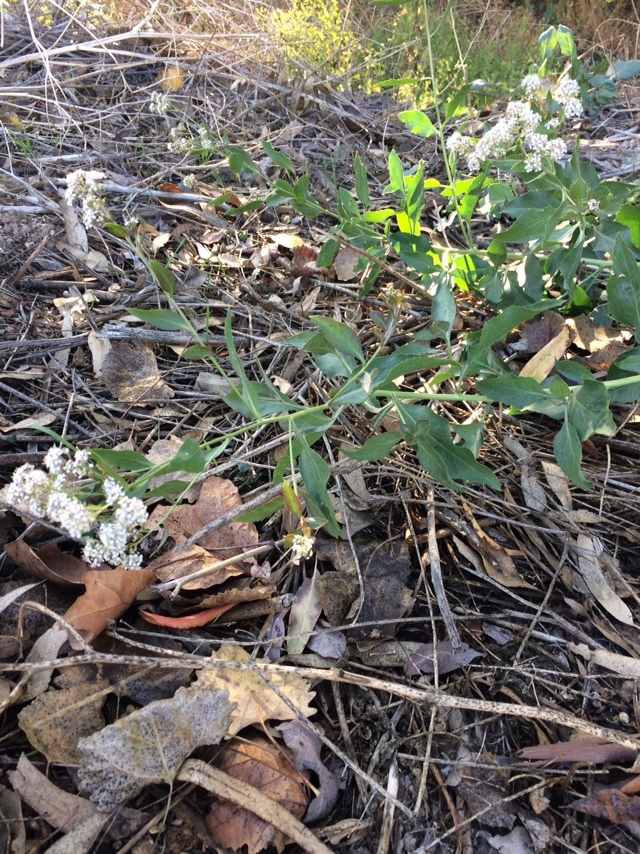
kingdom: Plantae
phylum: Tracheophyta
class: Magnoliopsida
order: Brassicales
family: Brassicaceae
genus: Lepidium
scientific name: Lepidium latifolium
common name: Dittander
